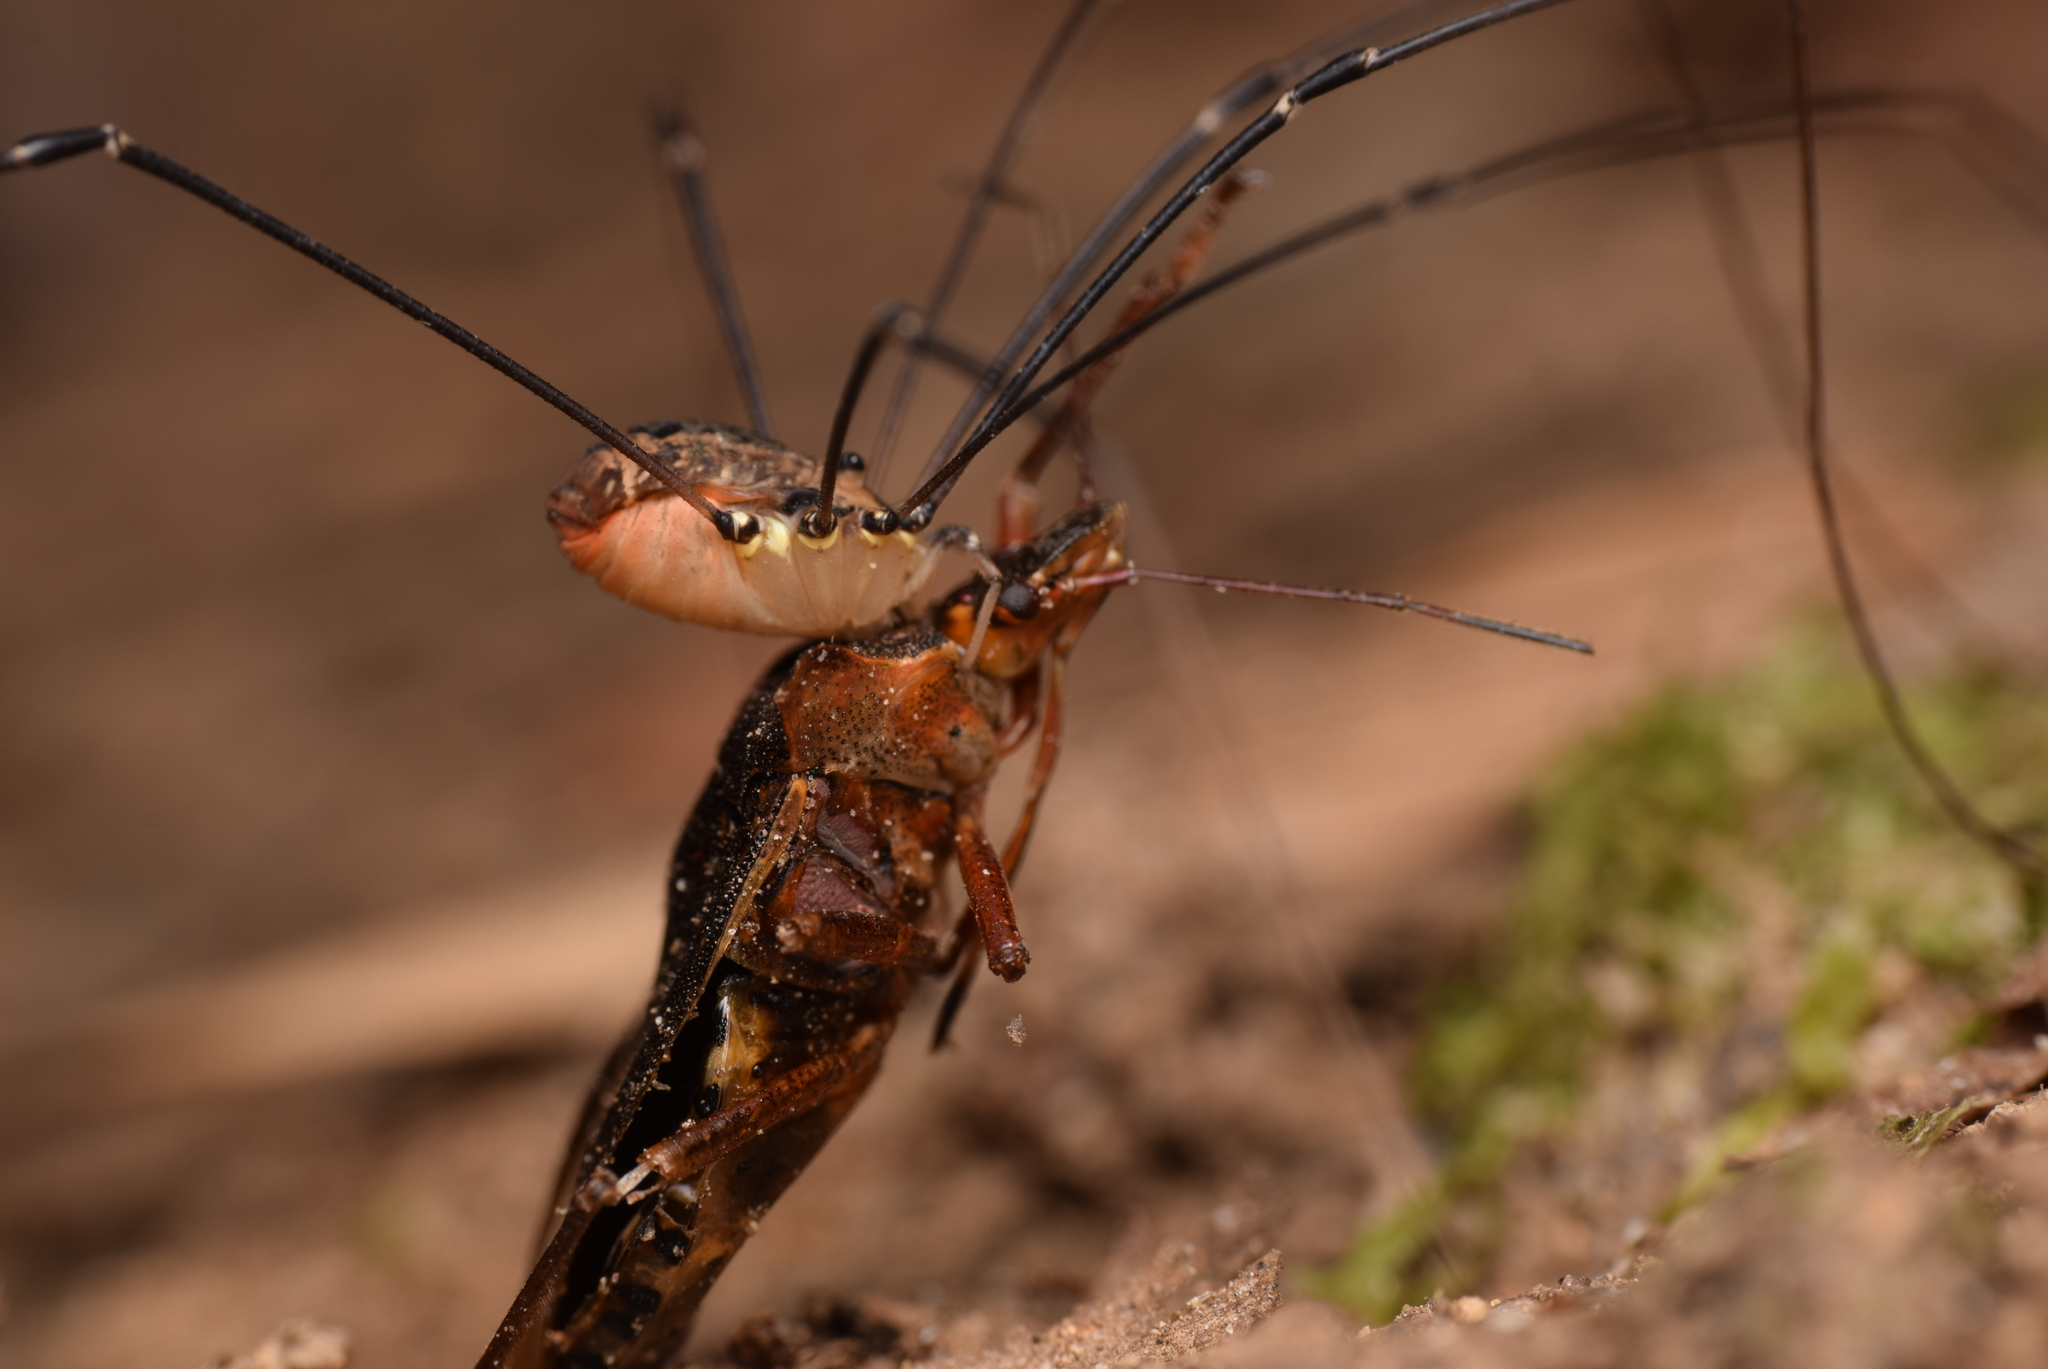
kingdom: Animalia
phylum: Arthropoda
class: Arachnida
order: Opiliones
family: Sclerosomatidae
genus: Leiobunum
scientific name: Leiobunum rotundum
